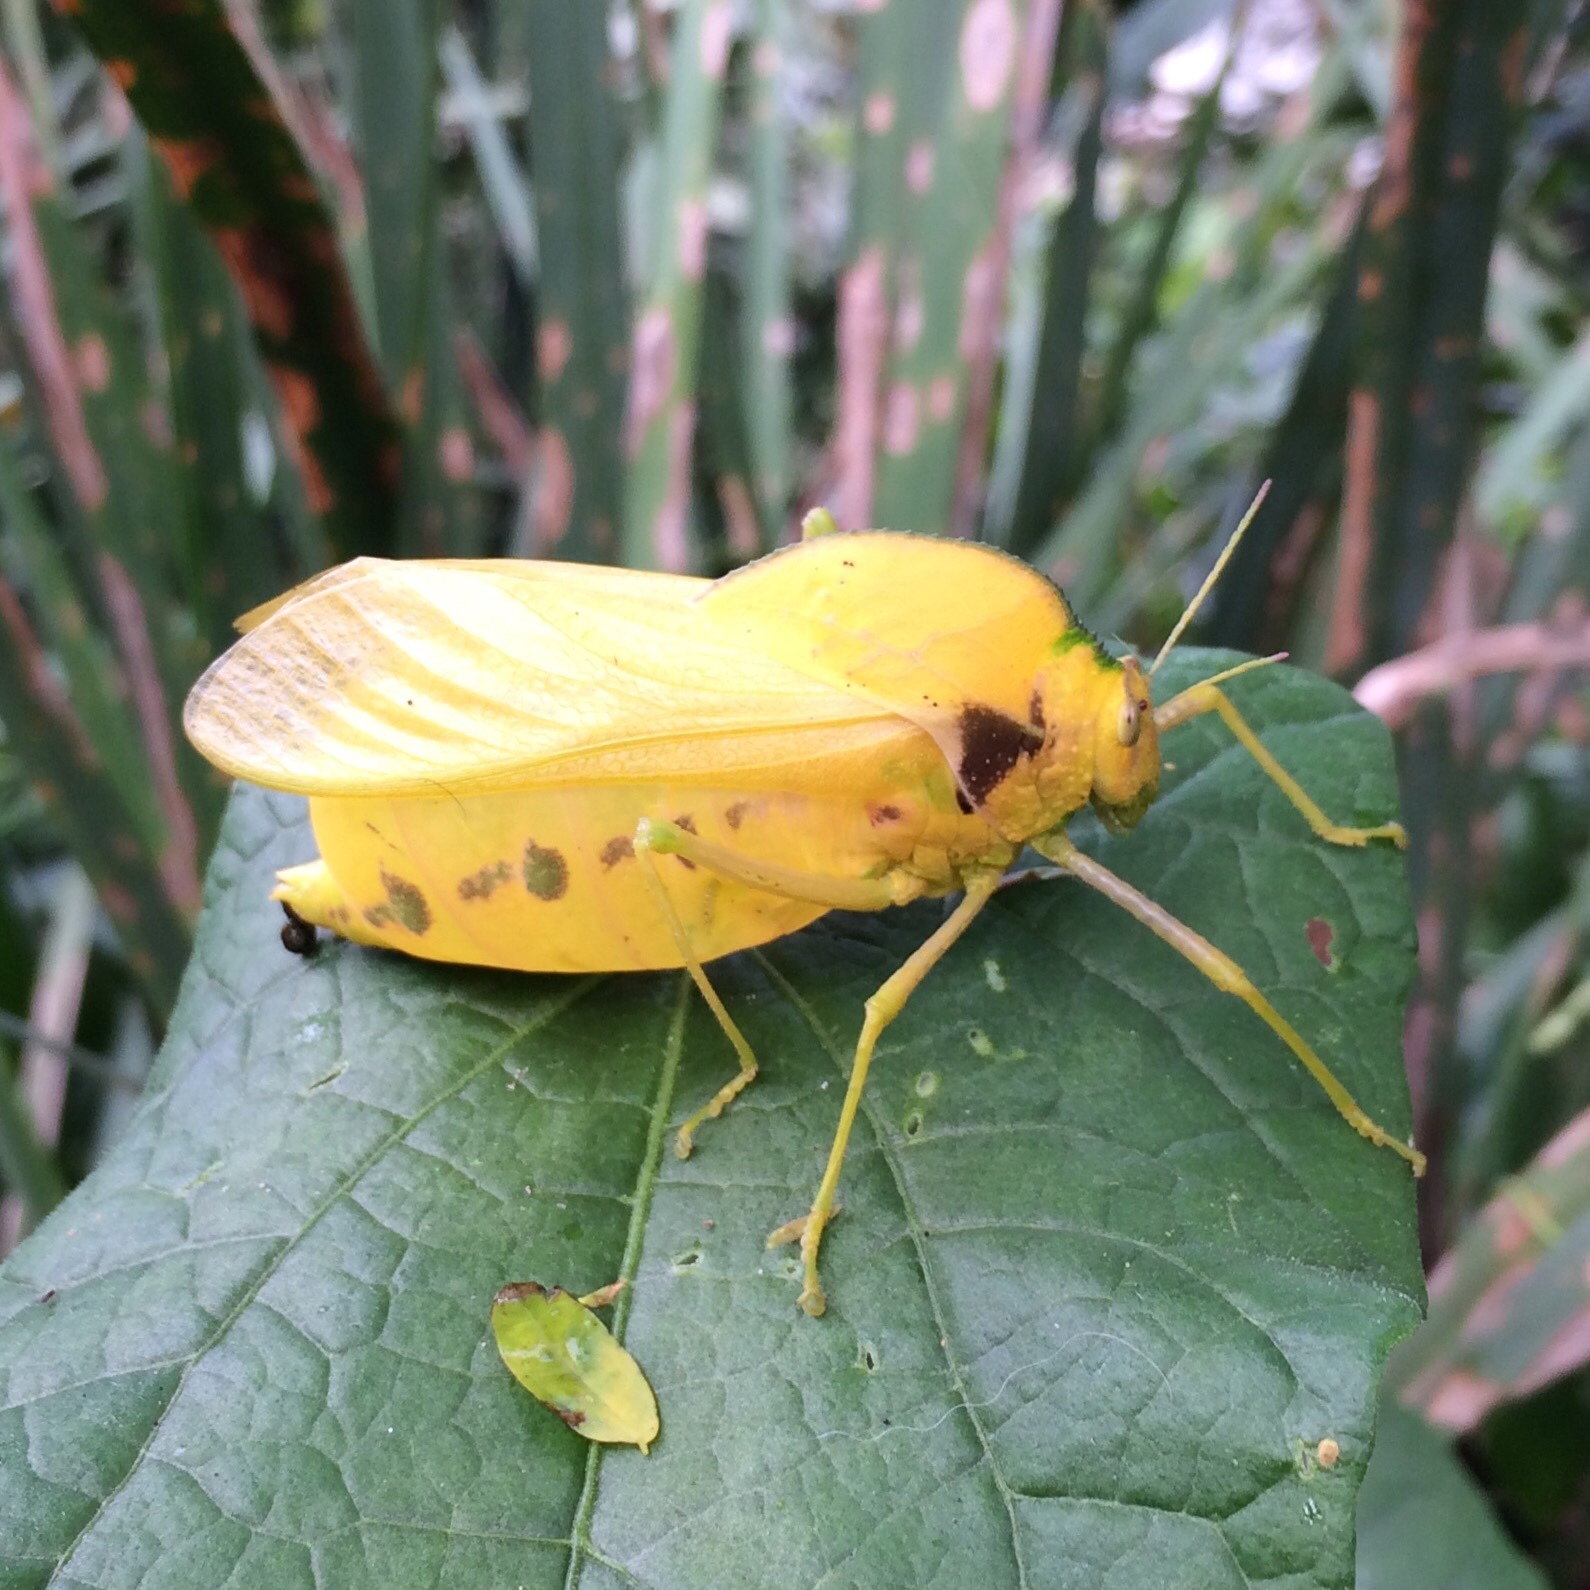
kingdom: Animalia
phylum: Arthropoda
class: Insecta
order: Orthoptera
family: Pneumoridae
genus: Bullacris
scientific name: Bullacris membracioides
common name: Bishop
